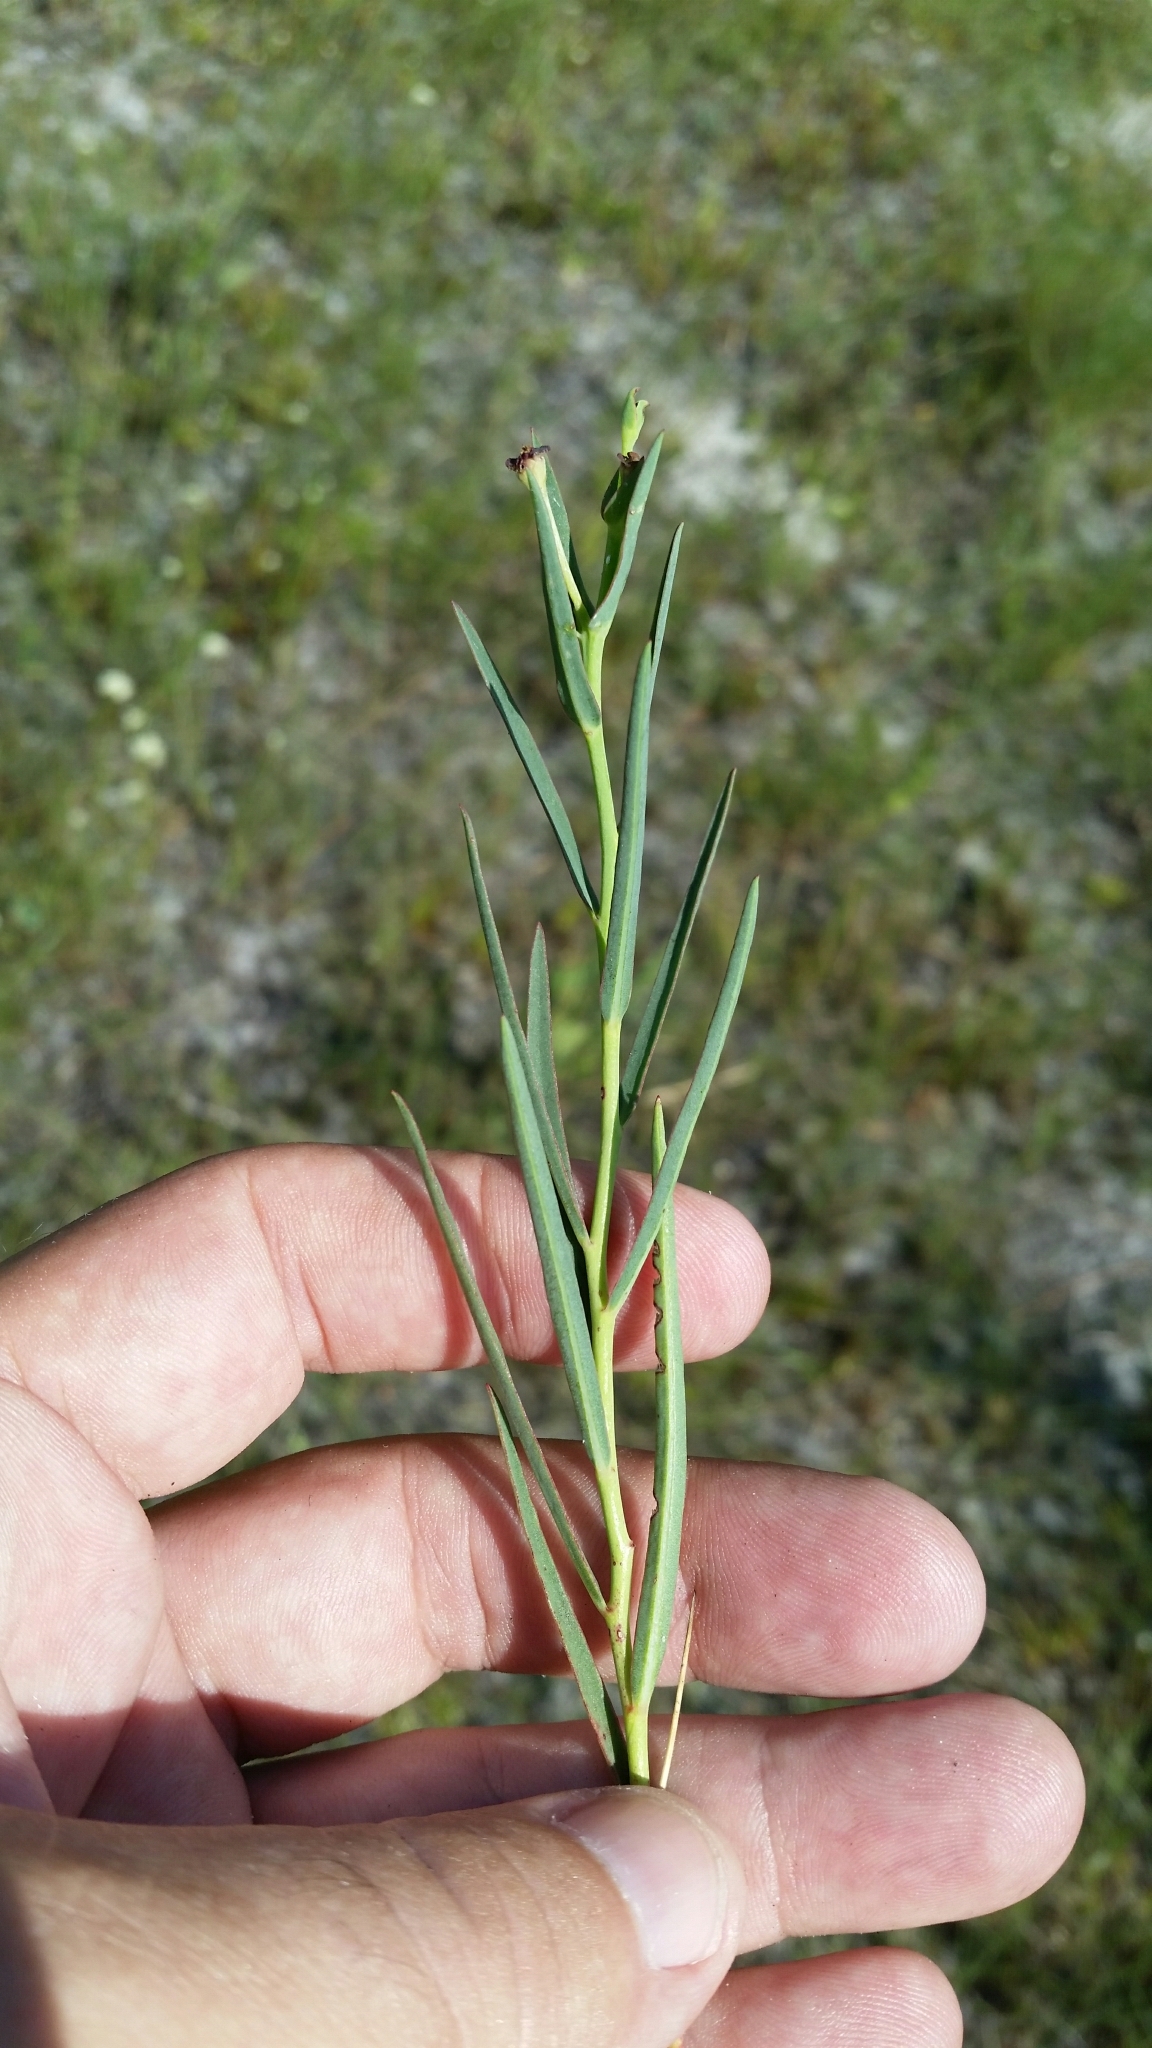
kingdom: Plantae
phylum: Tracheophyta
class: Magnoliopsida
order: Malpighiales
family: Euphorbiaceae
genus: Euphorbia
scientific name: Euphorbia inundata
